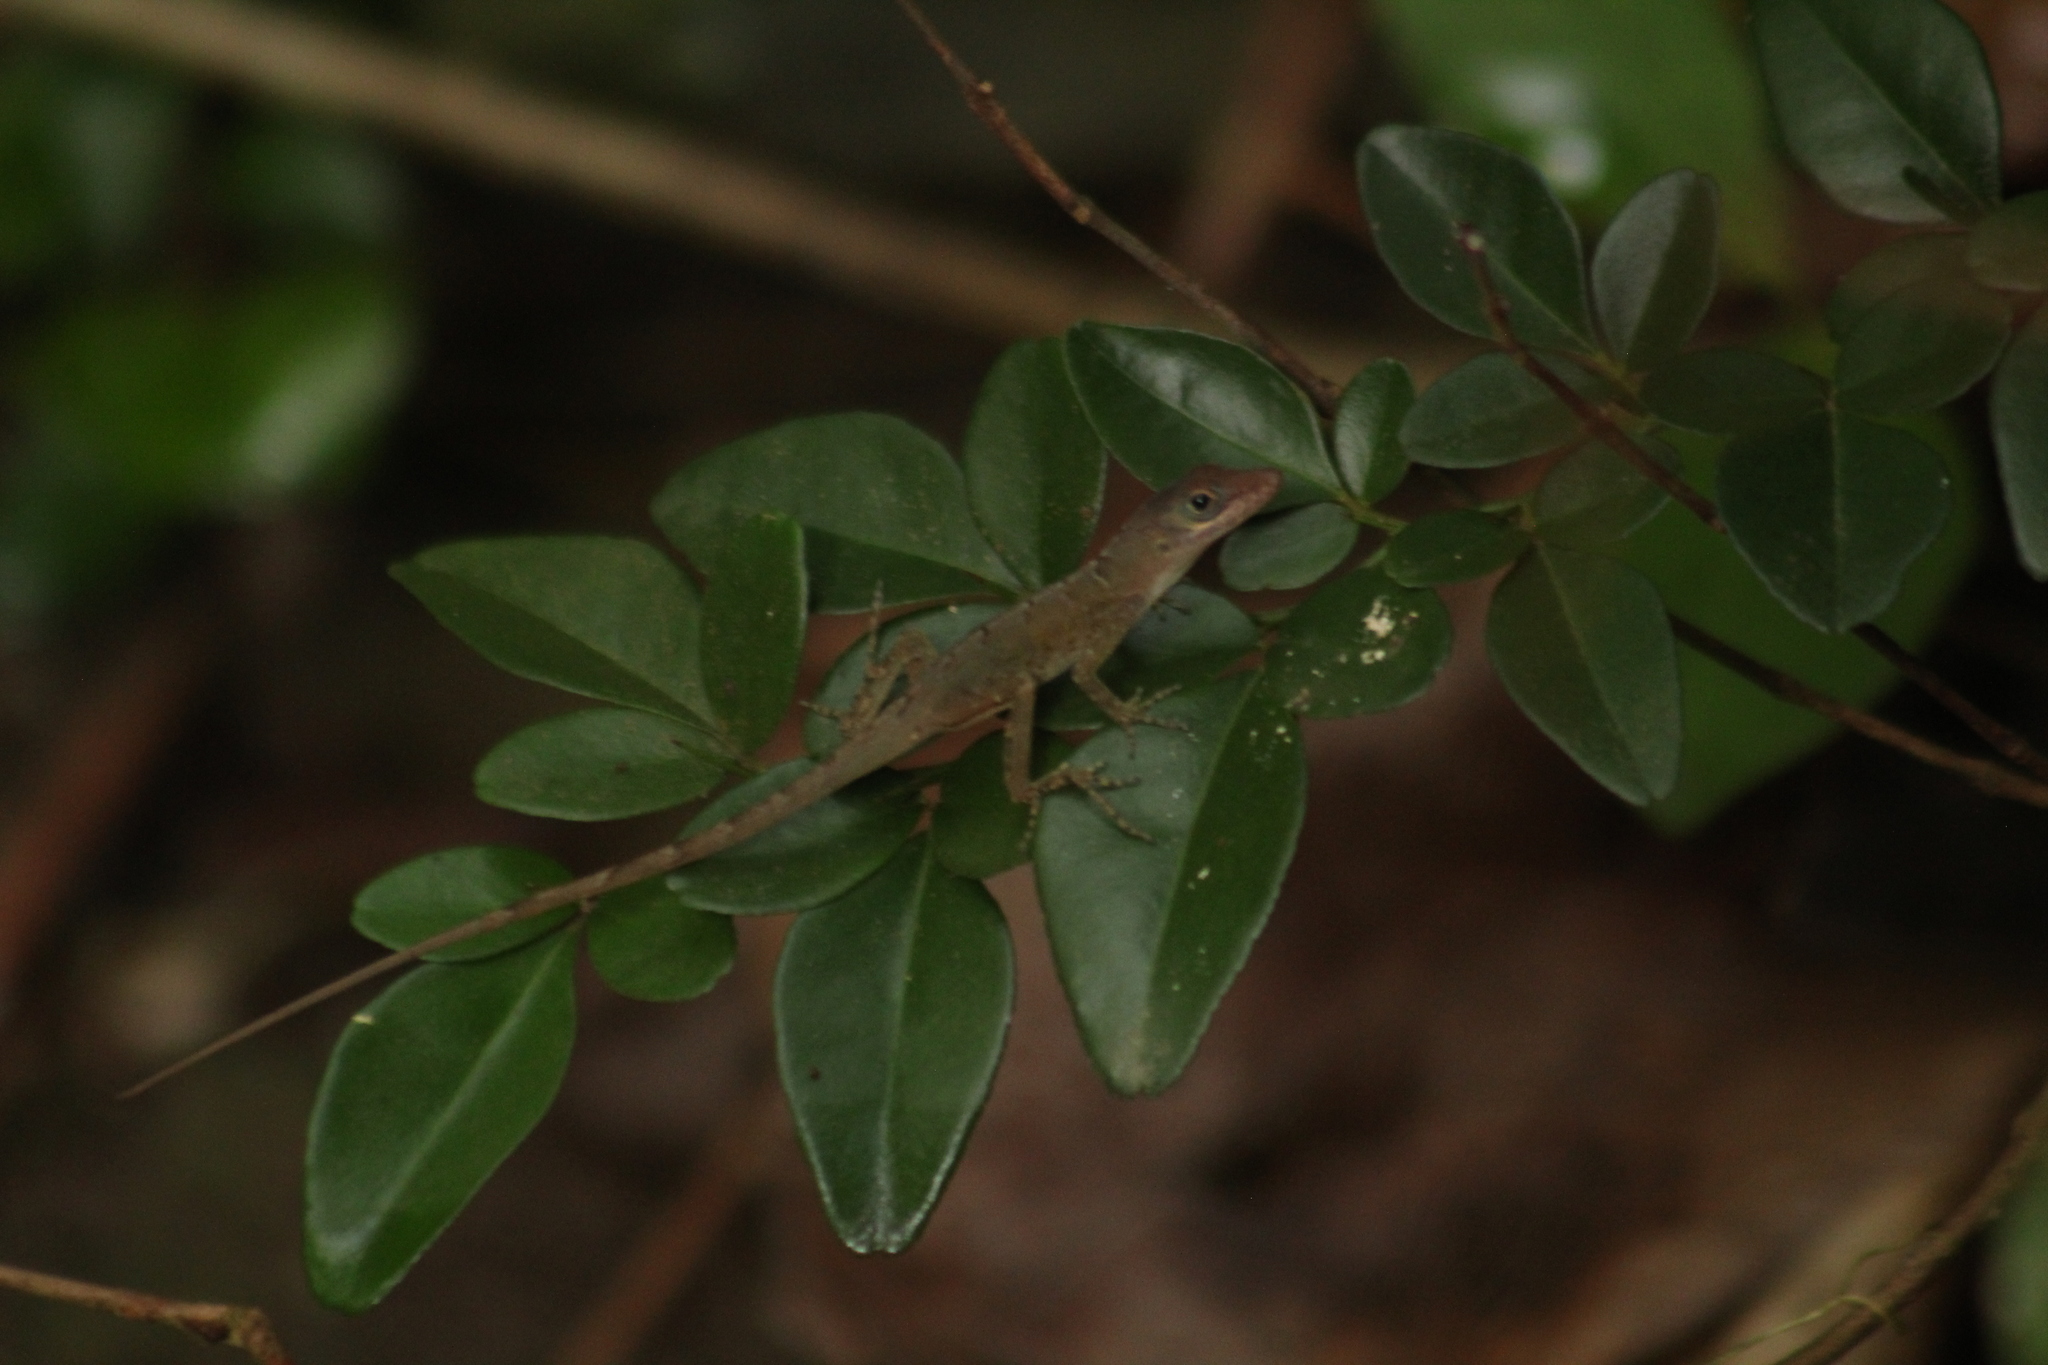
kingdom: Animalia
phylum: Chordata
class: Squamata
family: Dactyloidae
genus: Anolis
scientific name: Anolis pogus
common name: Anguilla bank bush anole
